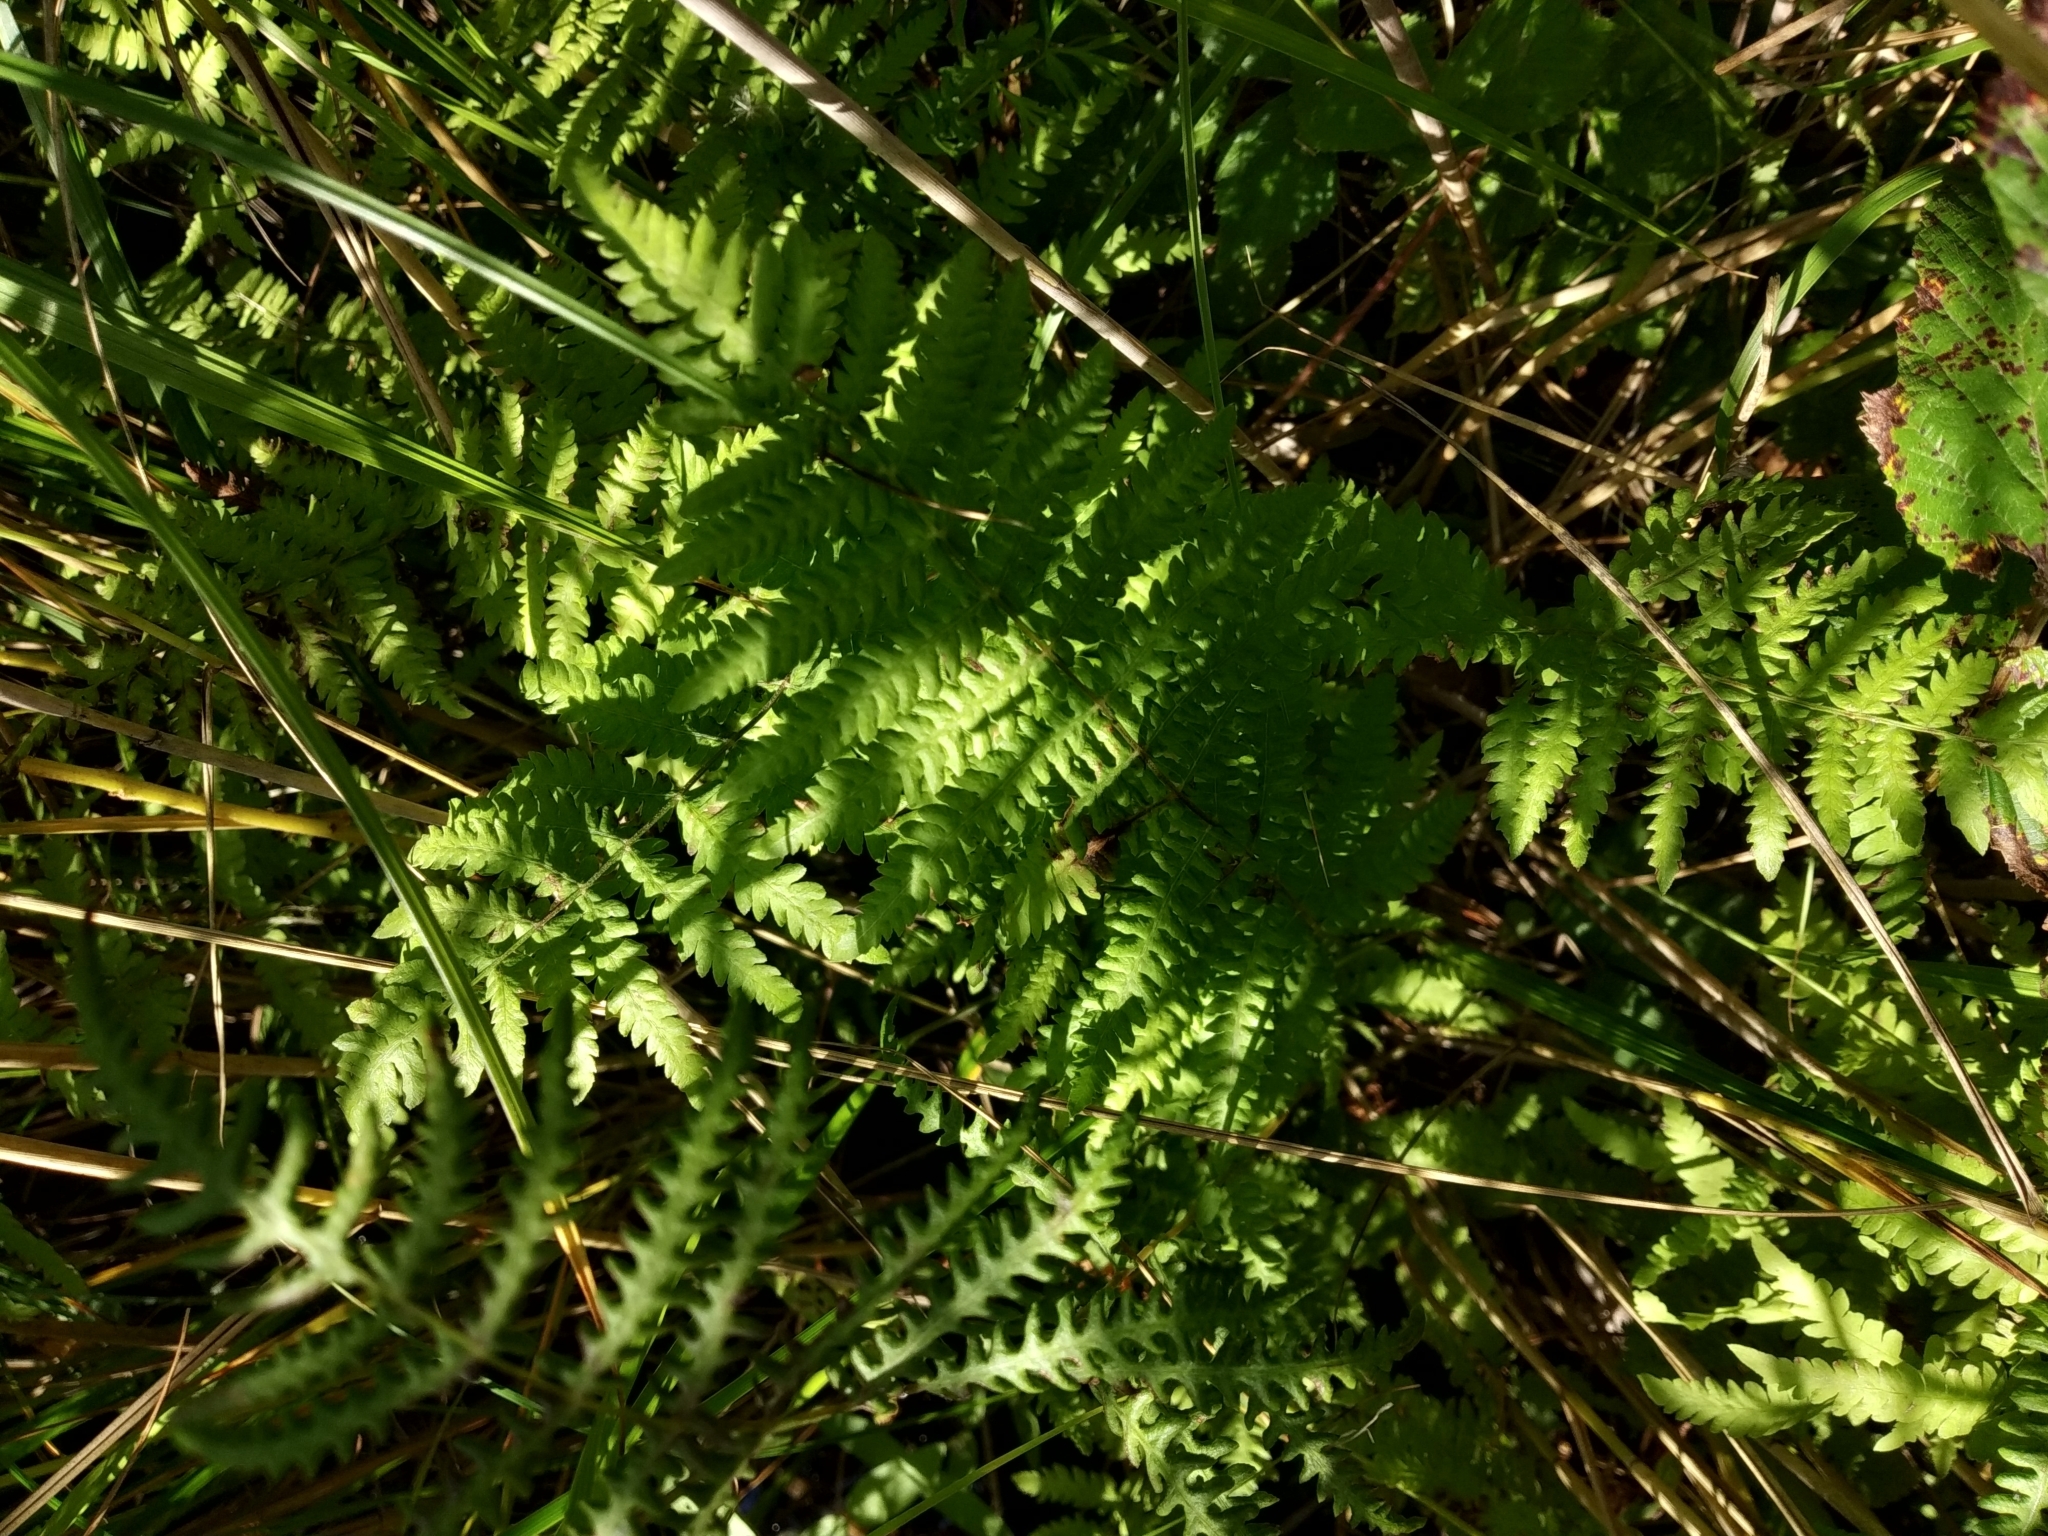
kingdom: Plantae
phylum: Tracheophyta
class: Polypodiopsida
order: Polypodiales
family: Thelypteridaceae
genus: Thelypteris
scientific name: Thelypteris palustris
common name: Marsh fern
